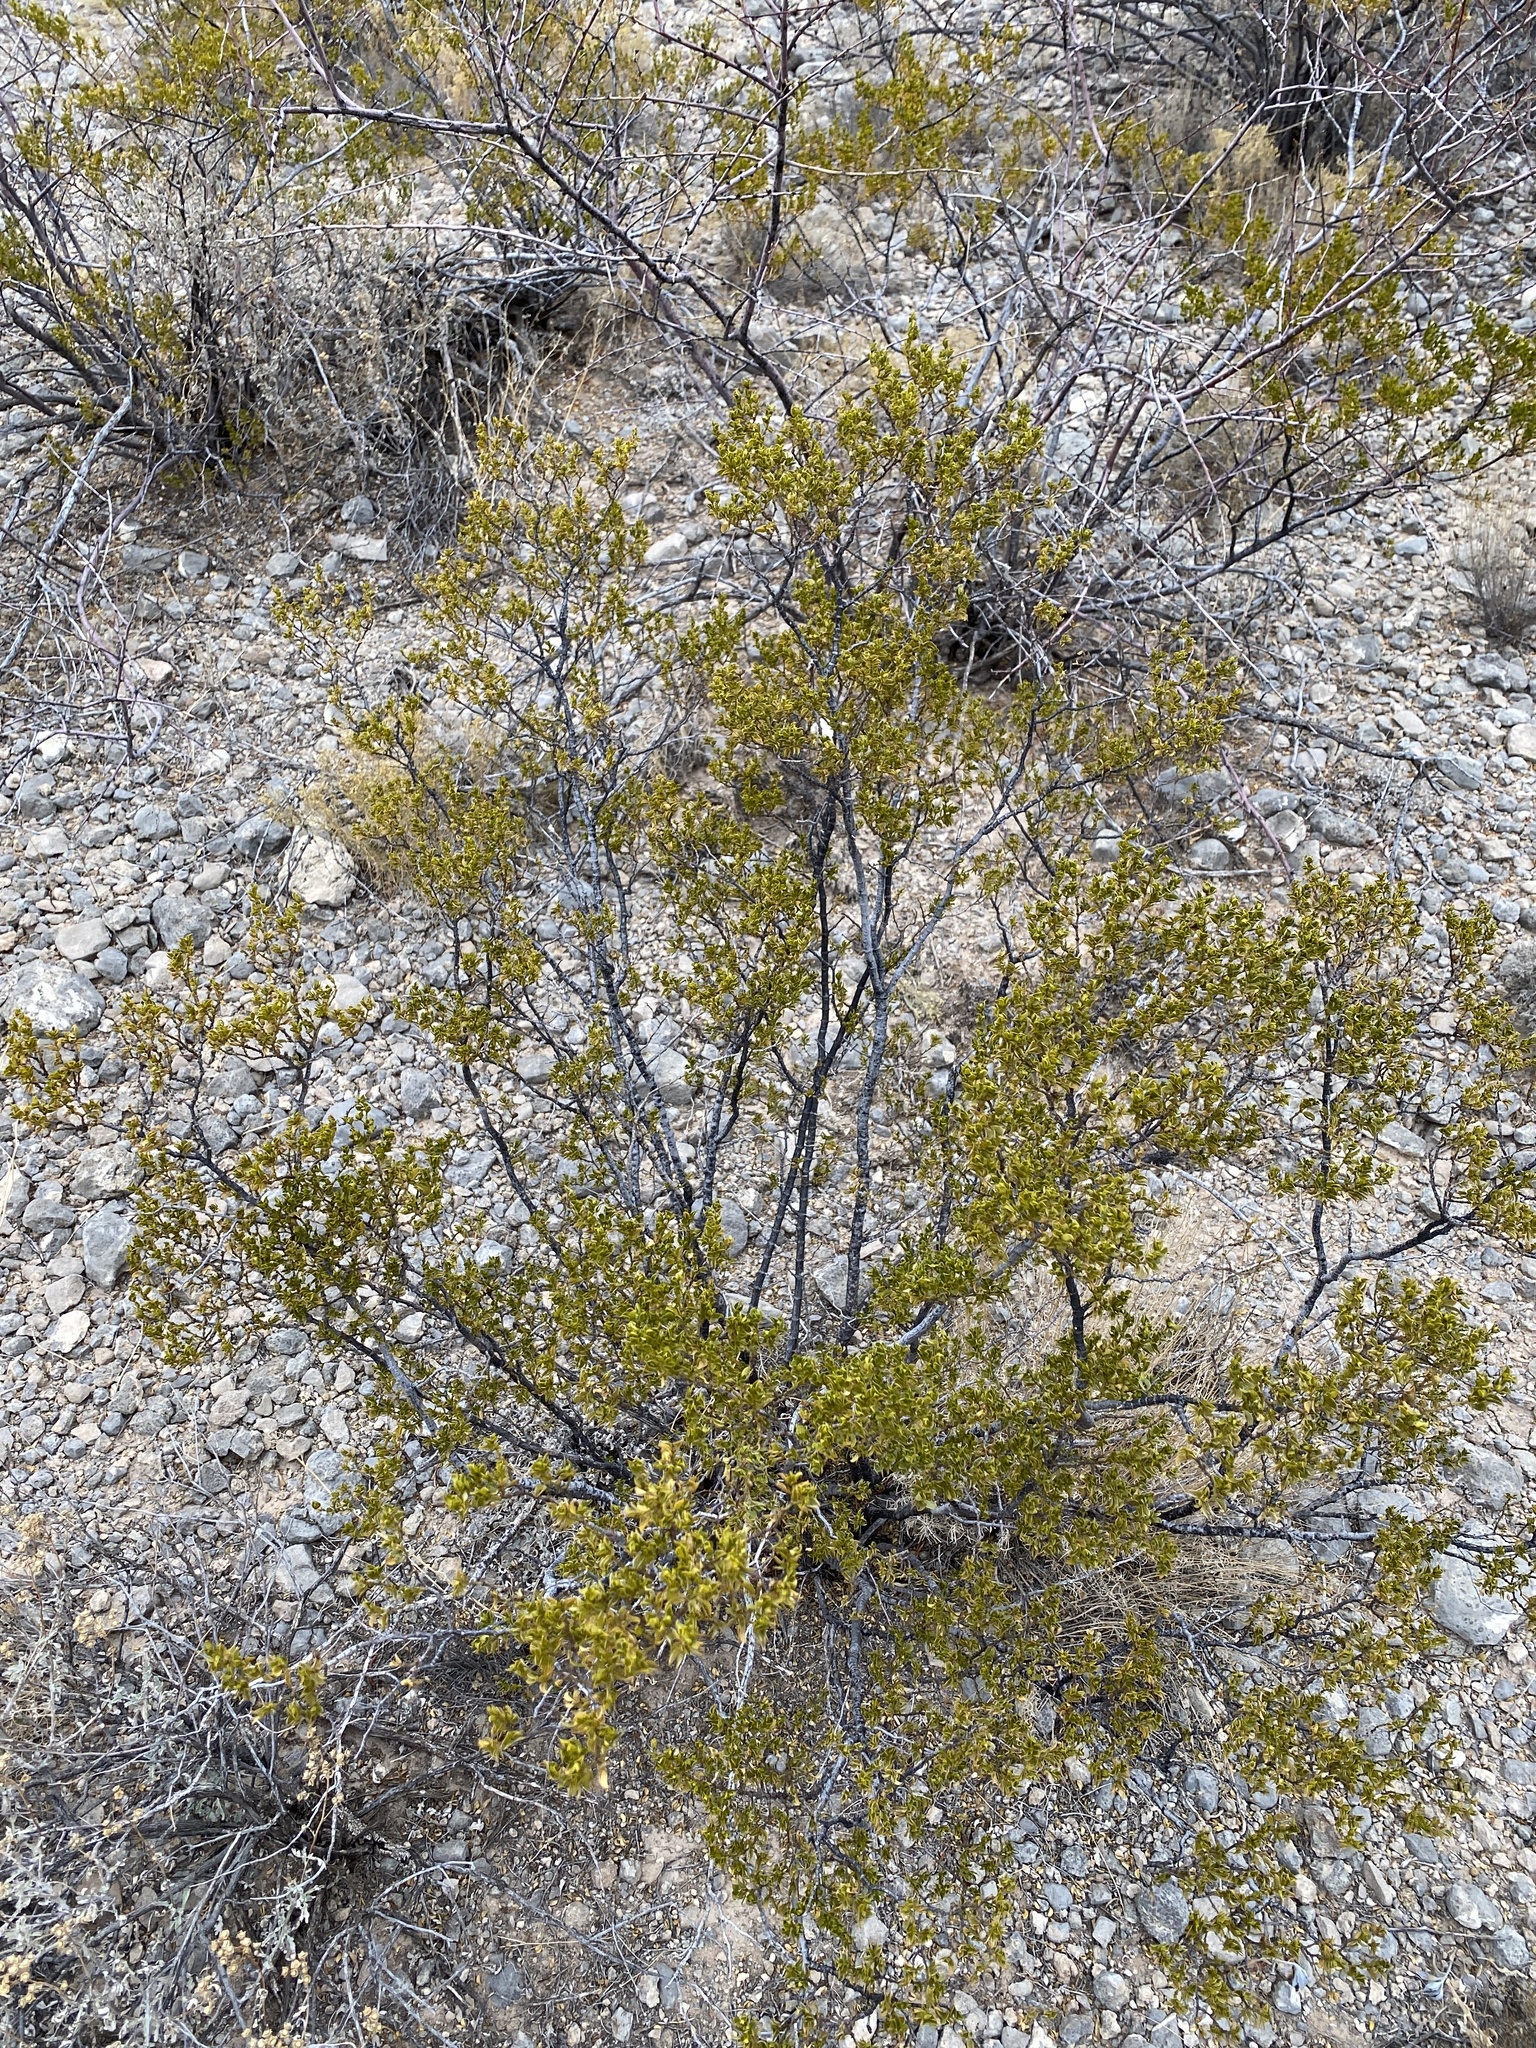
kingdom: Plantae
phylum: Tracheophyta
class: Magnoliopsida
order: Zygophyllales
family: Zygophyllaceae
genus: Larrea
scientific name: Larrea tridentata
